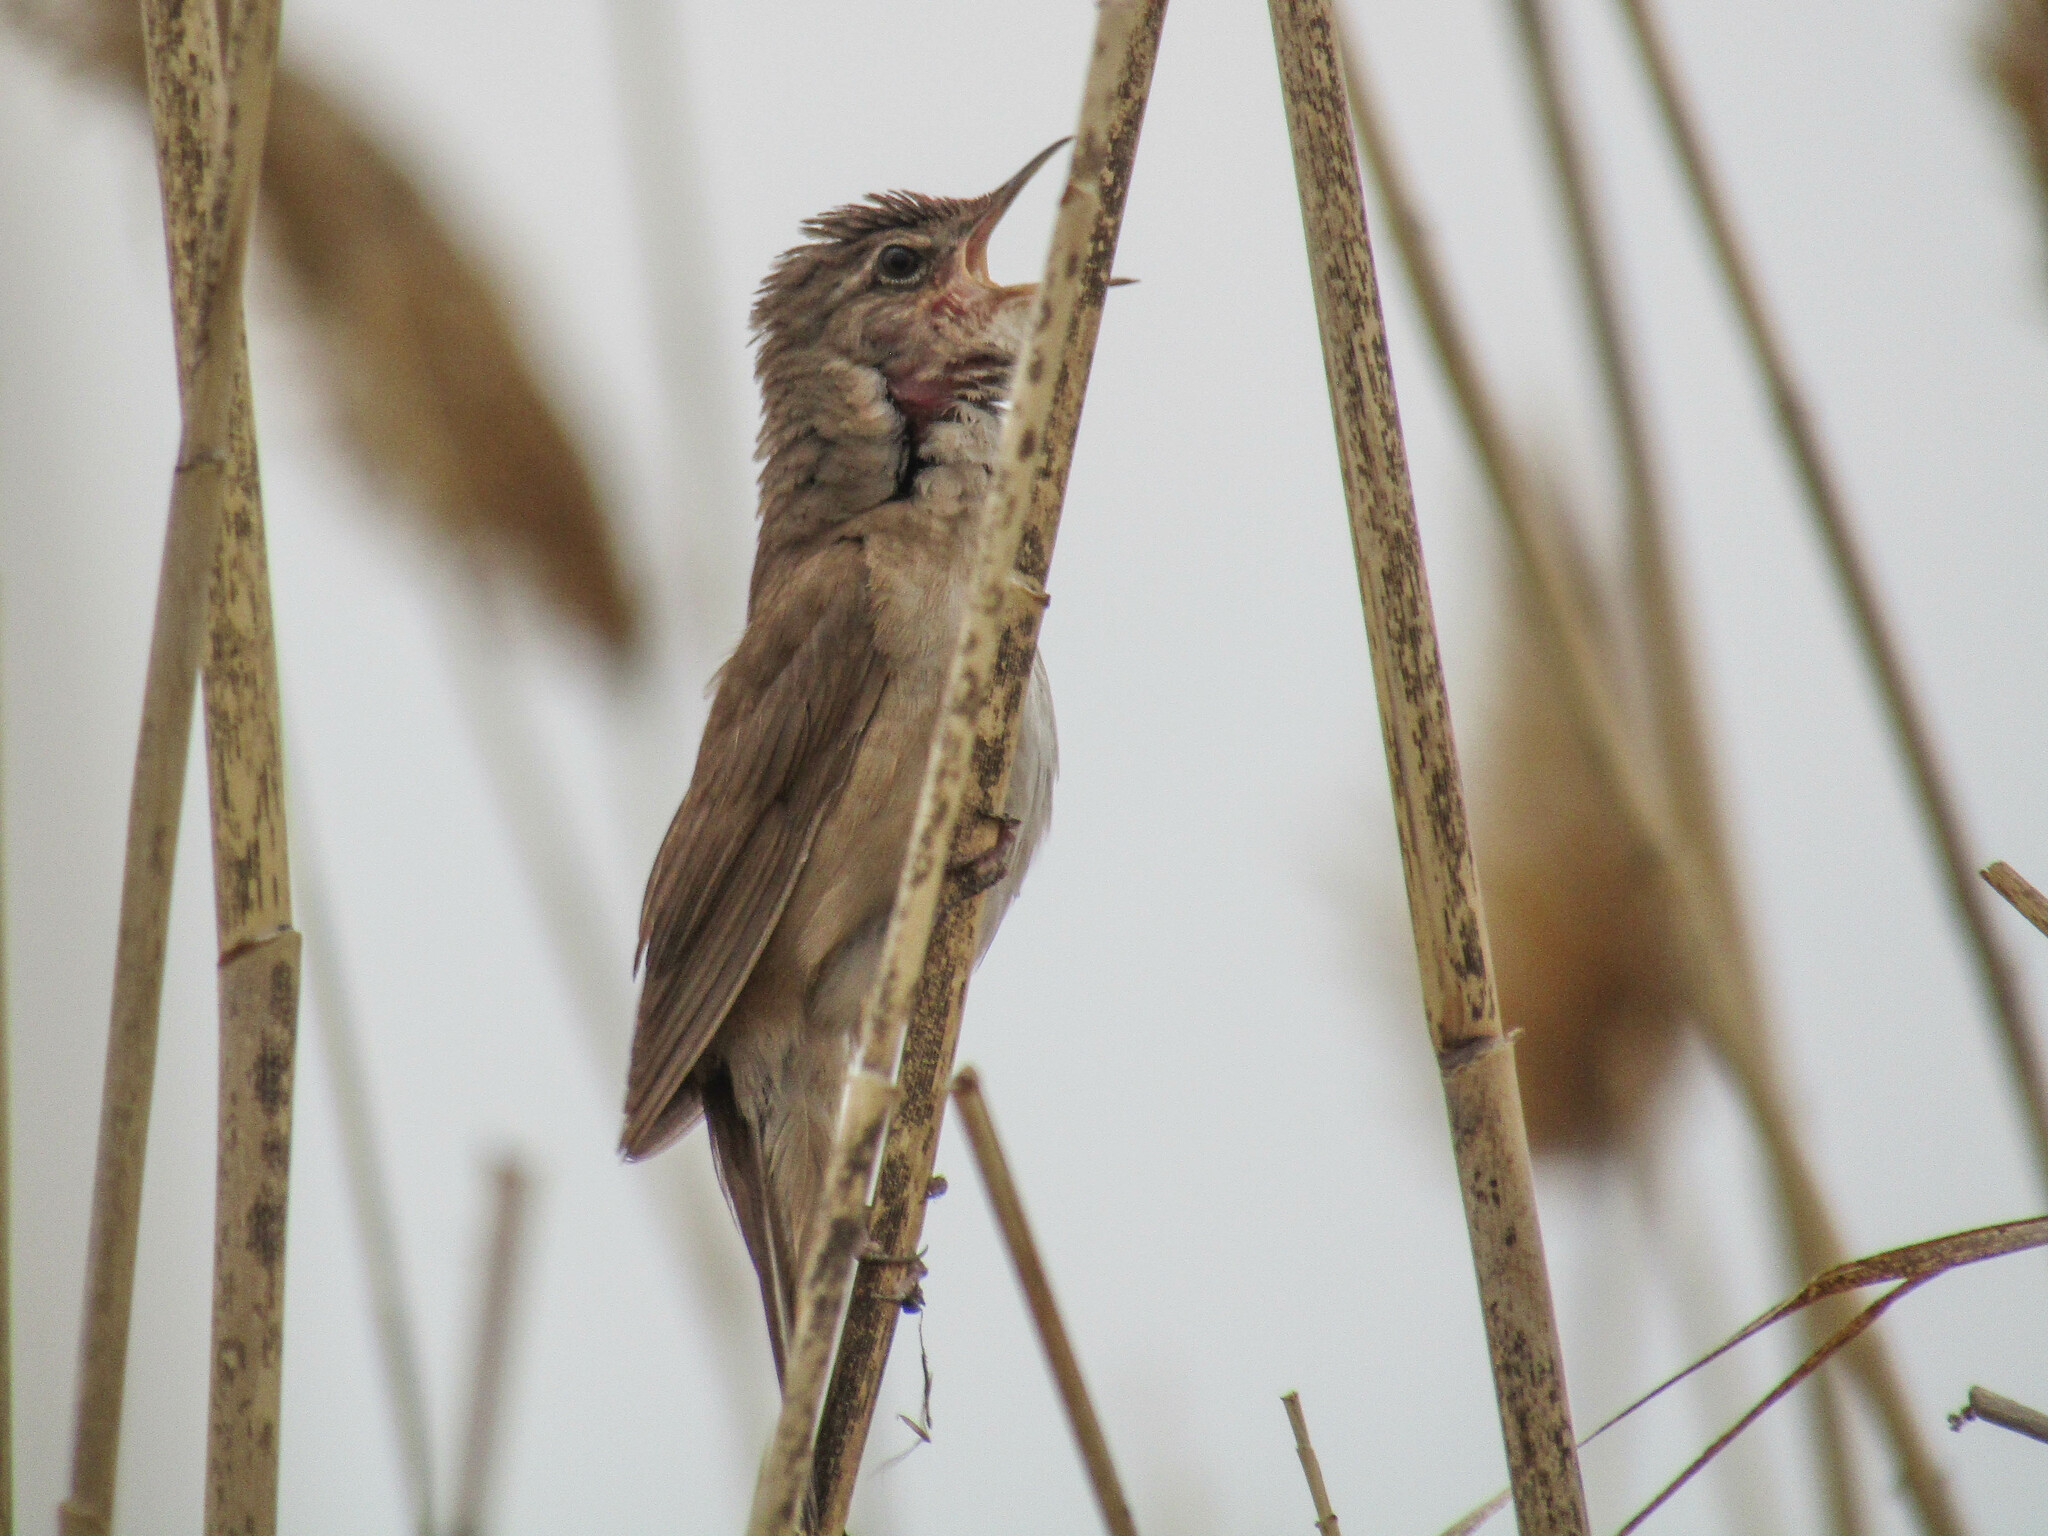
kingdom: Animalia
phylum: Chordata
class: Aves
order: Passeriformes
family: Locustellidae
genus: Locustella
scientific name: Locustella luscinioides
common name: Savi's warbler
